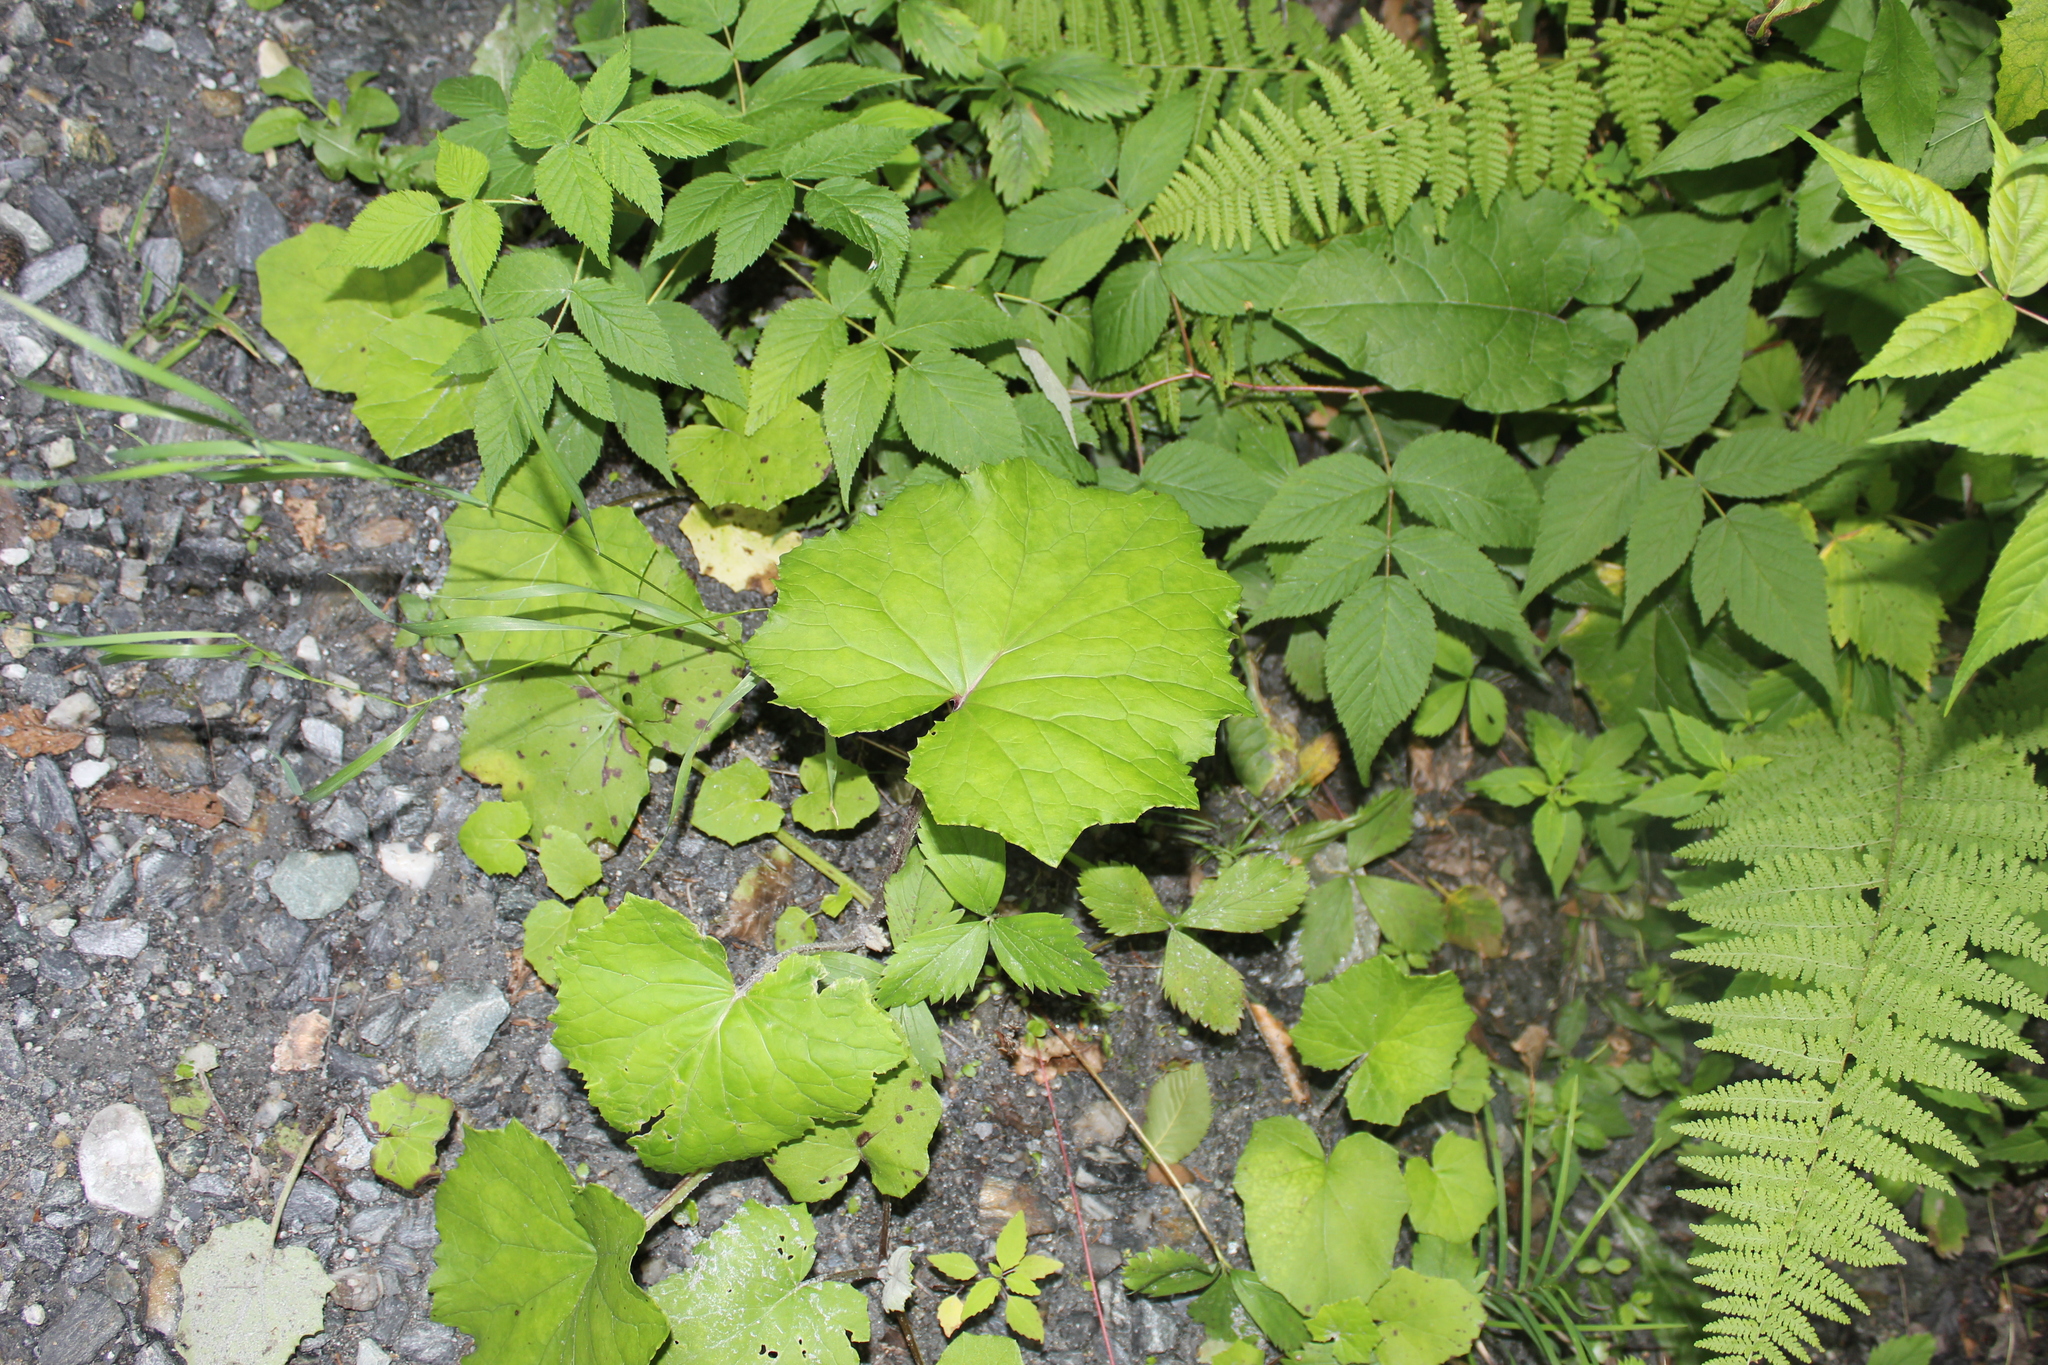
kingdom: Plantae
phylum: Tracheophyta
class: Magnoliopsida
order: Asterales
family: Asteraceae
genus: Tussilago
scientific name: Tussilago farfara
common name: Coltsfoot
